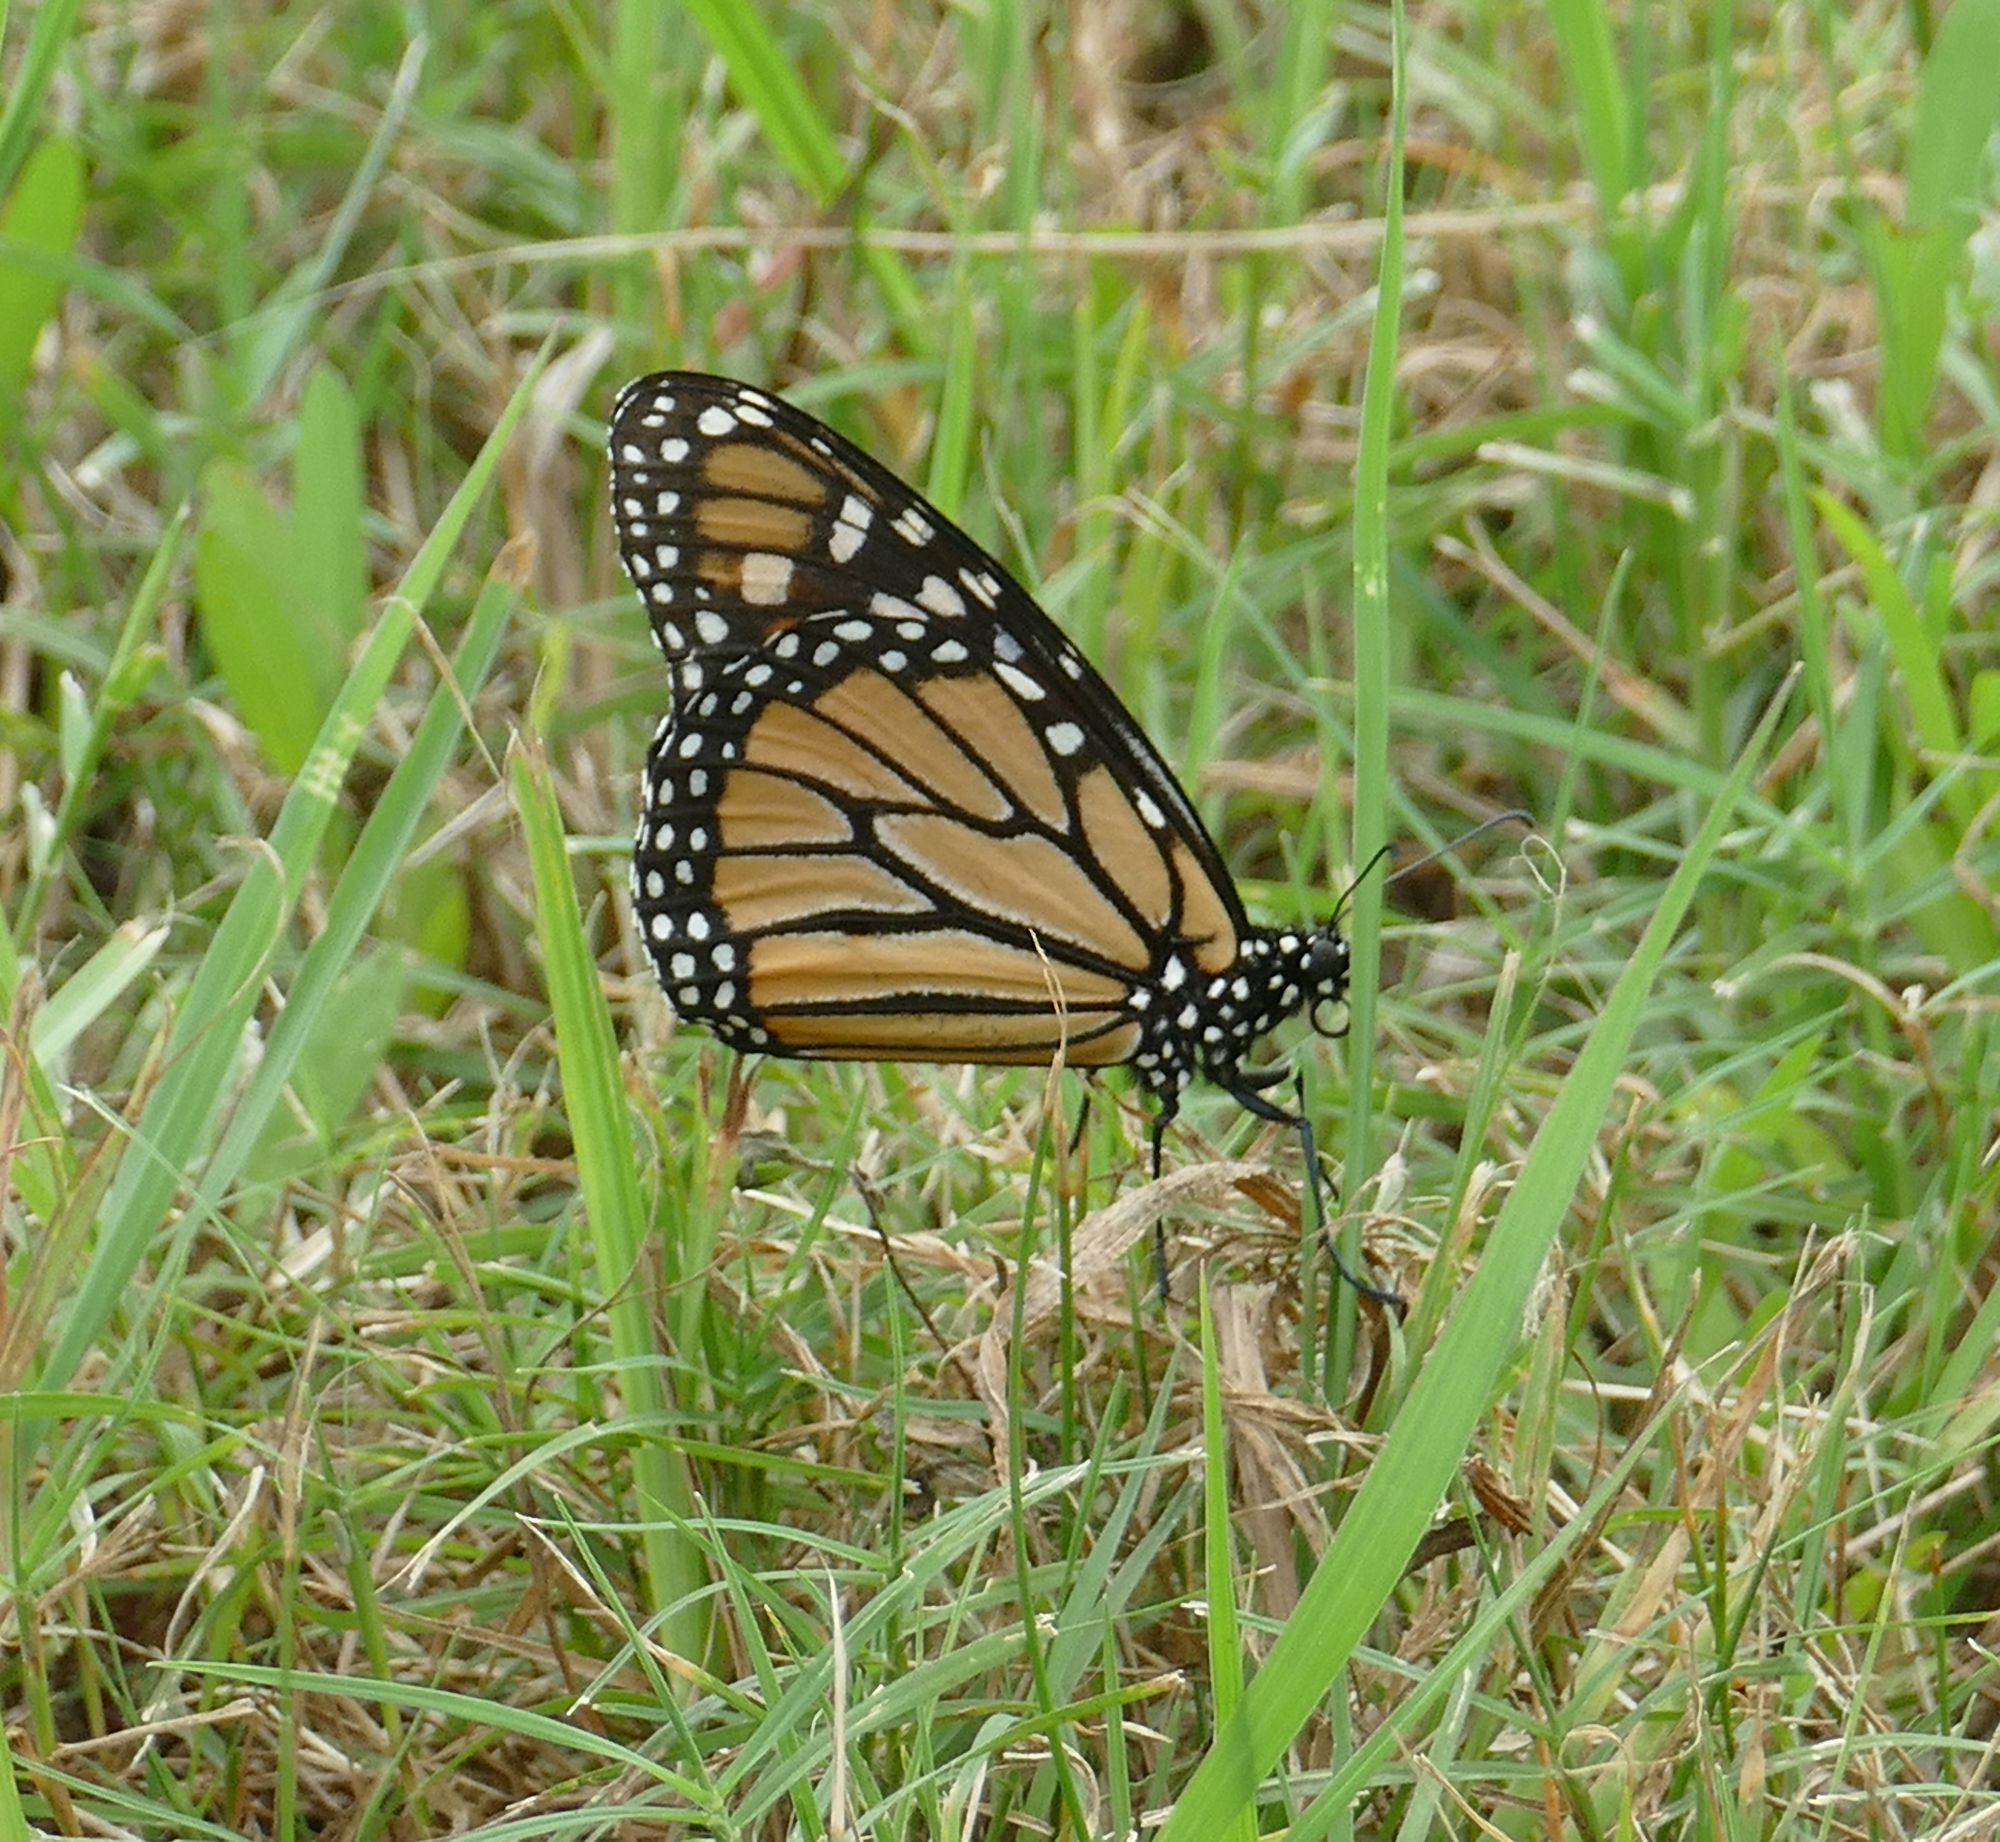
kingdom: Animalia
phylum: Arthropoda
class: Insecta
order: Lepidoptera
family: Nymphalidae
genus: Danaus
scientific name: Danaus plexippus
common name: Monarch
